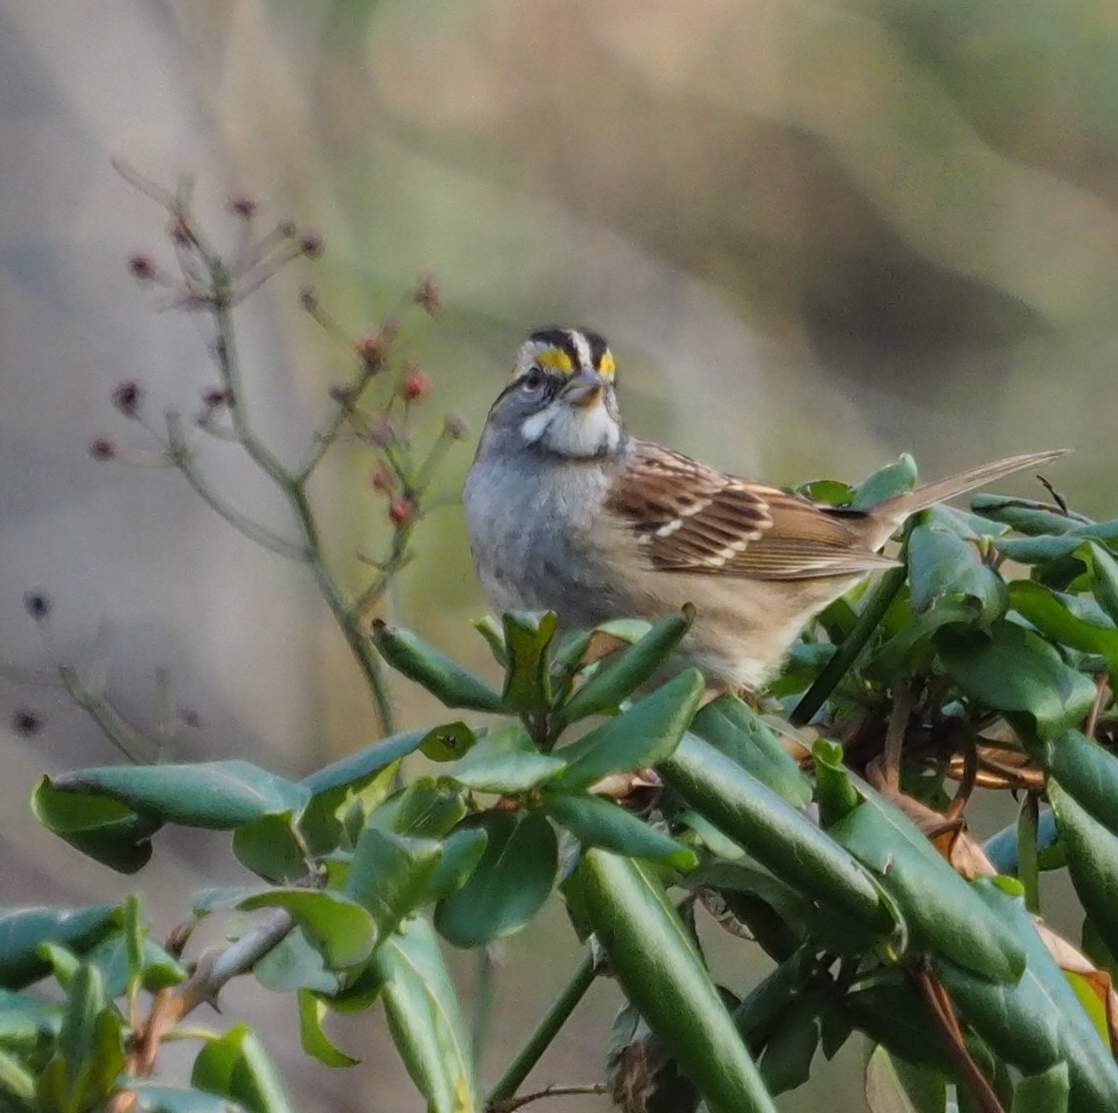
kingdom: Animalia
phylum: Chordata
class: Aves
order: Passeriformes
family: Passerellidae
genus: Zonotrichia
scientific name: Zonotrichia albicollis
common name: White-throated sparrow
